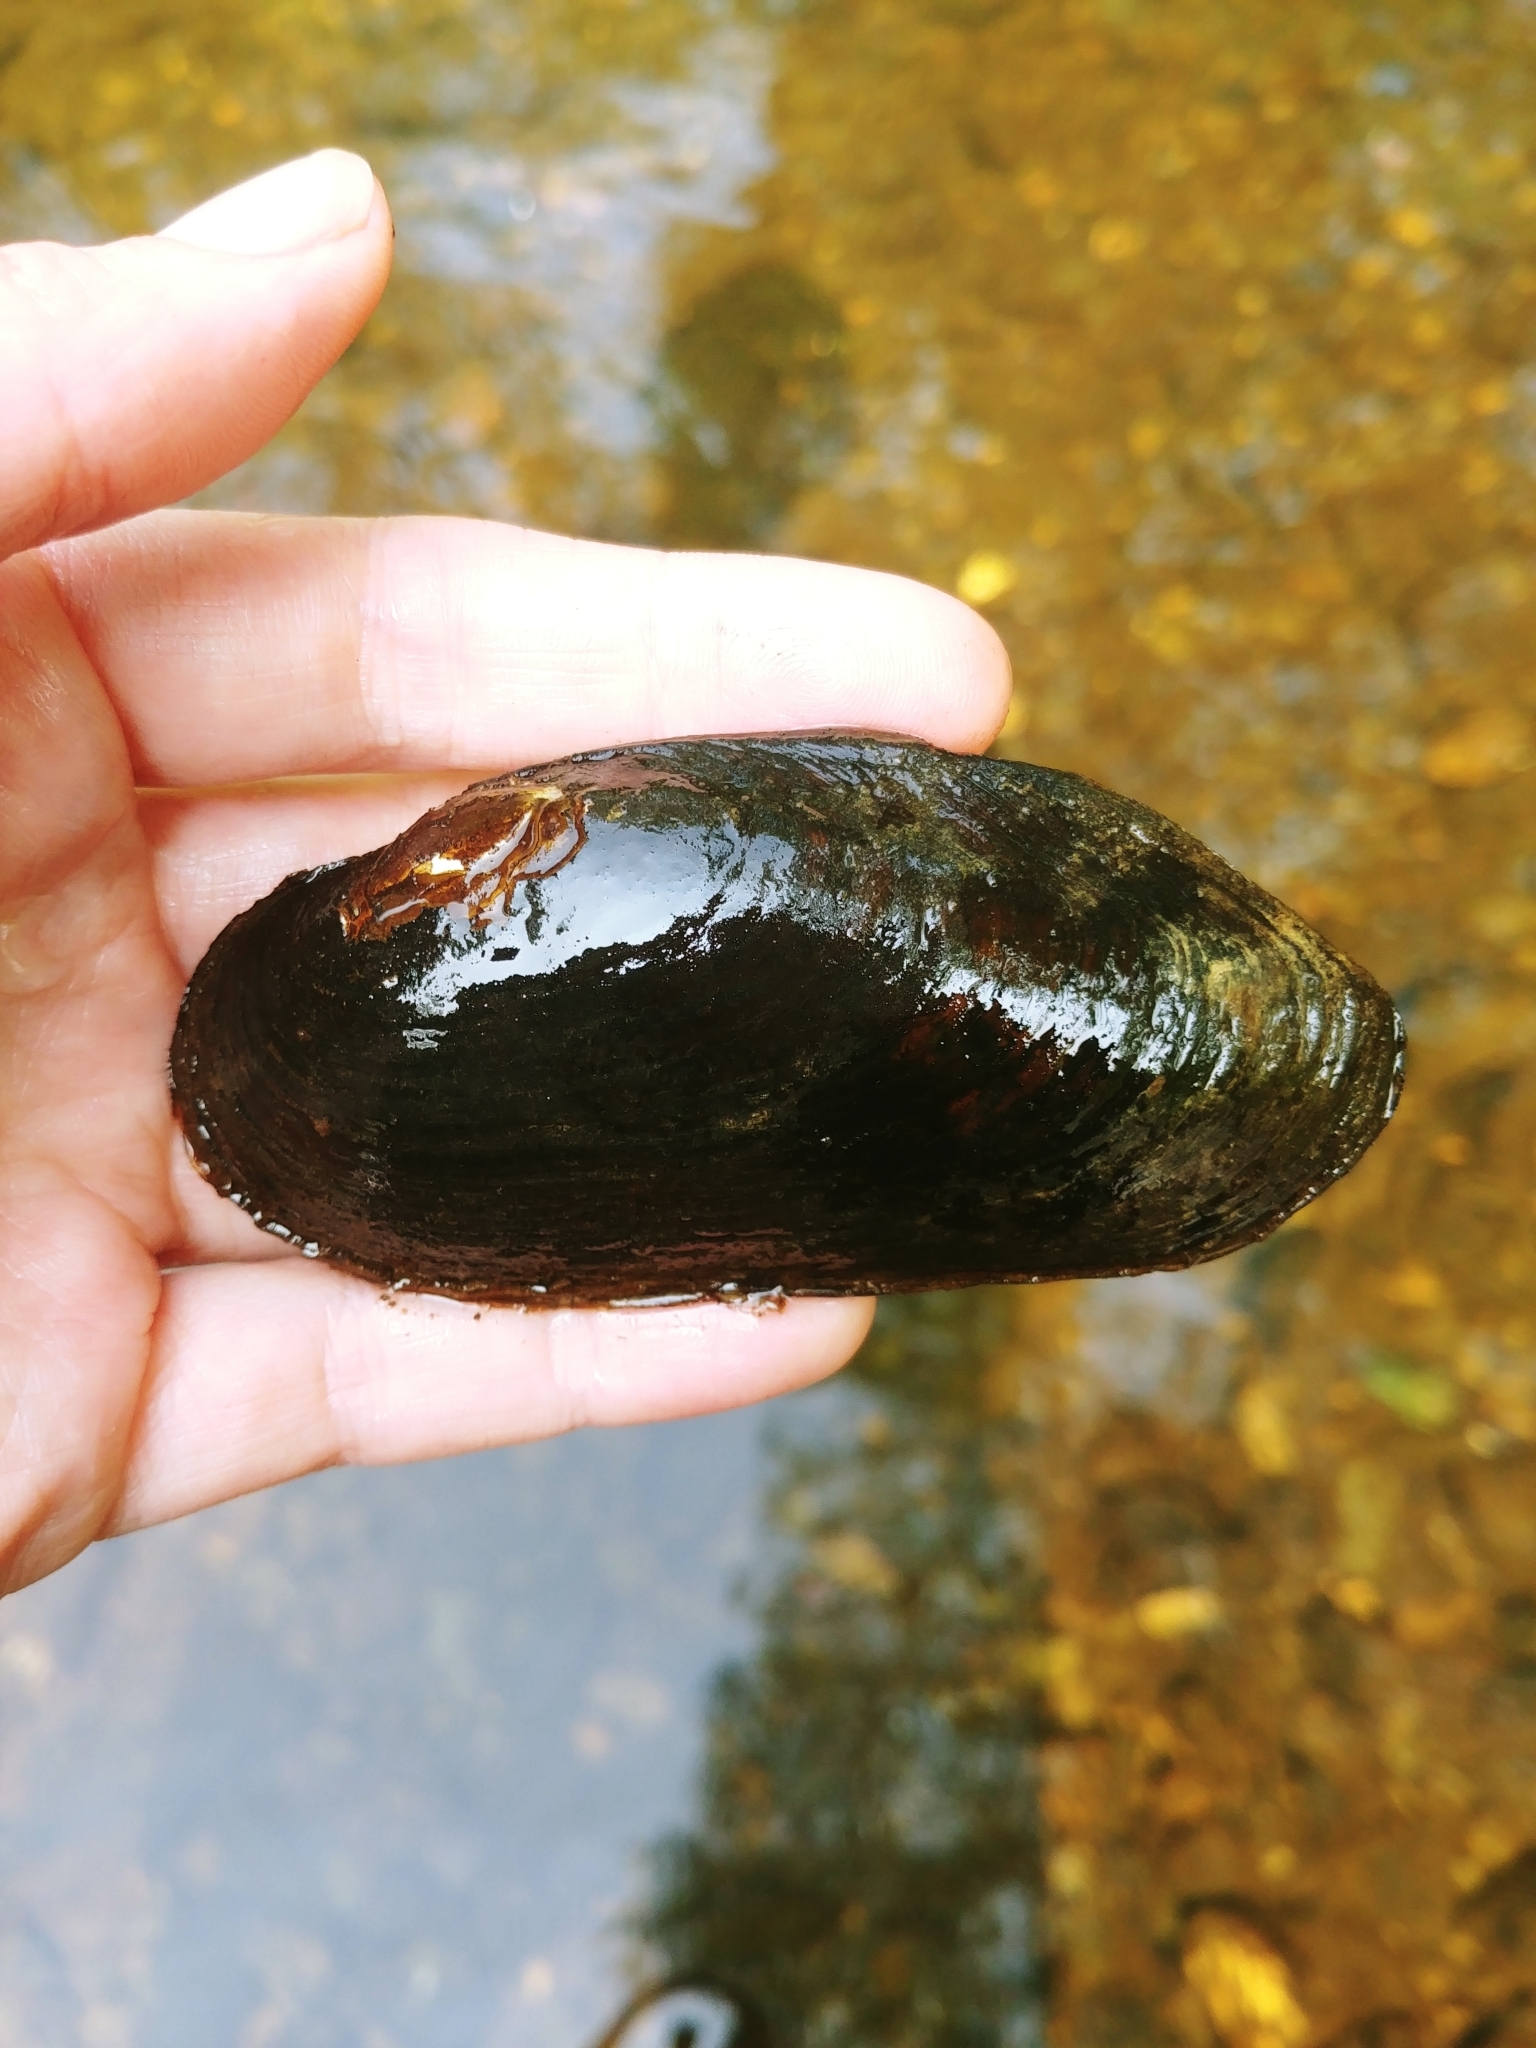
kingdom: Animalia
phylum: Mollusca
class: Bivalvia
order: Unionida
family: Margaritiferidae
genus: Margaritifera
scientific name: Margaritifera margaritifera
